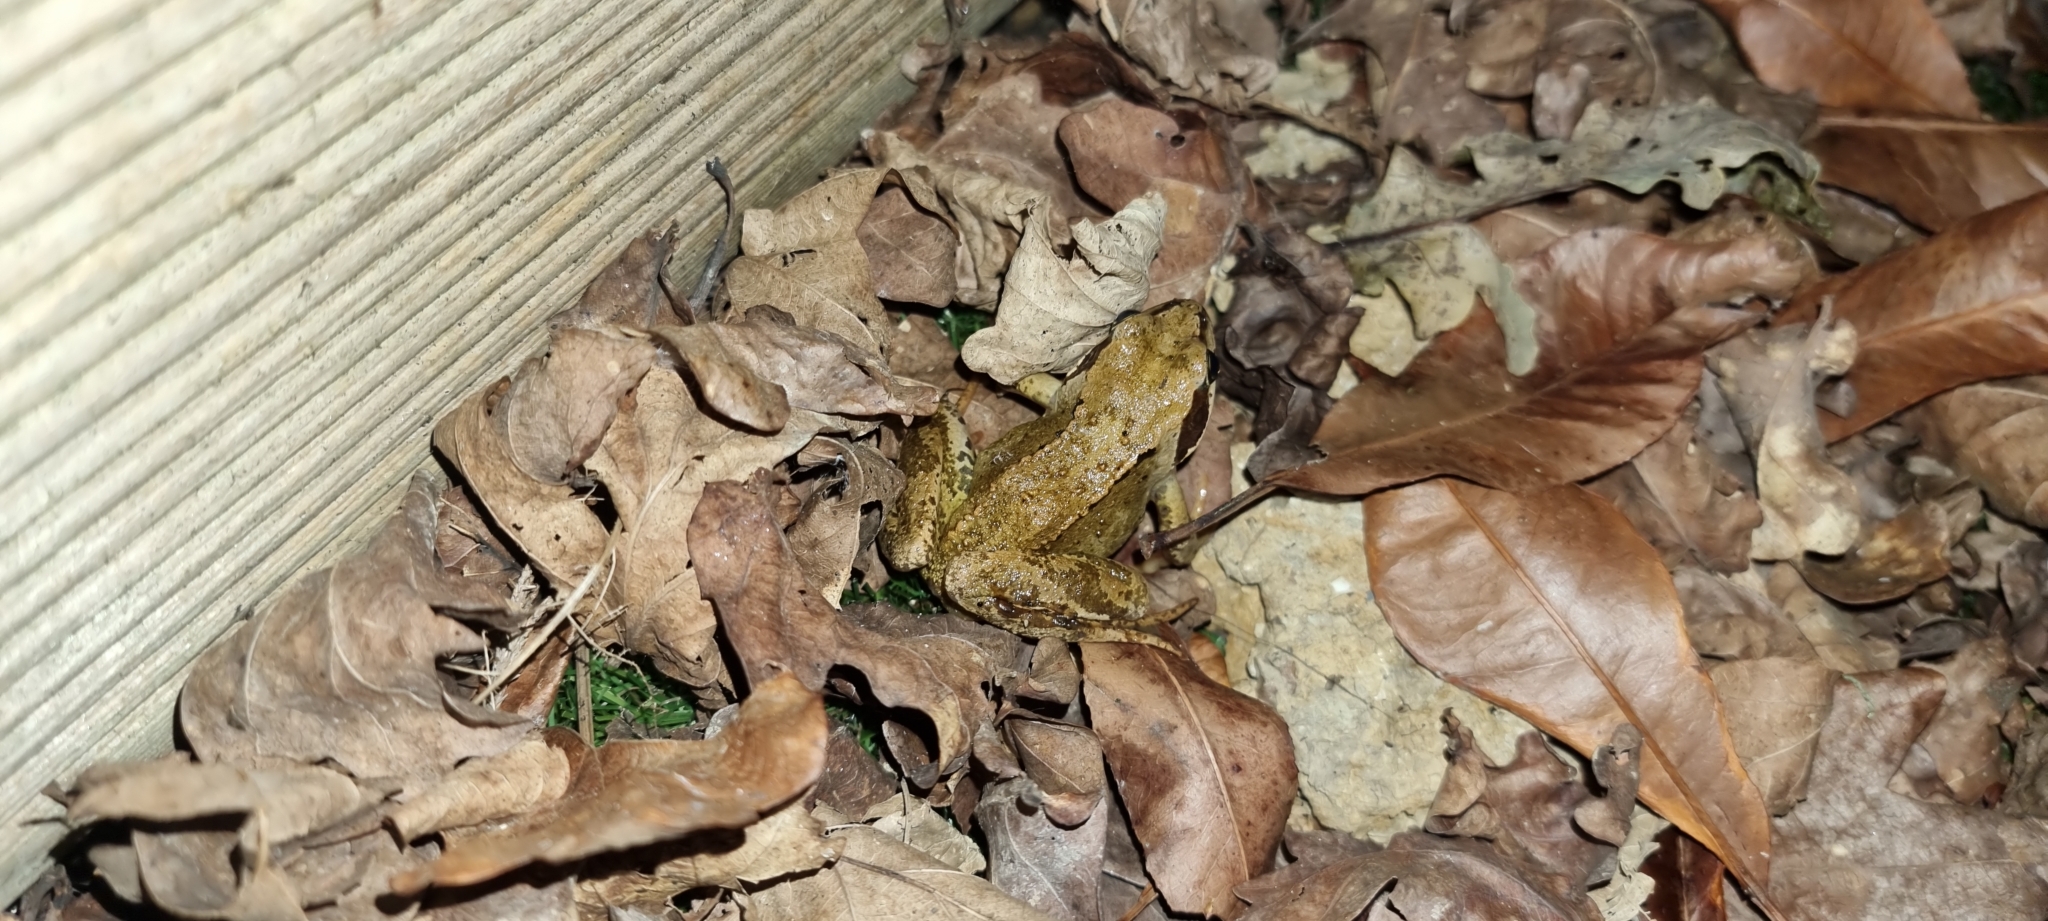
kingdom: Animalia
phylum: Chordata
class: Amphibia
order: Anura
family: Ranidae
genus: Rana
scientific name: Rana temporaria
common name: Common frog
